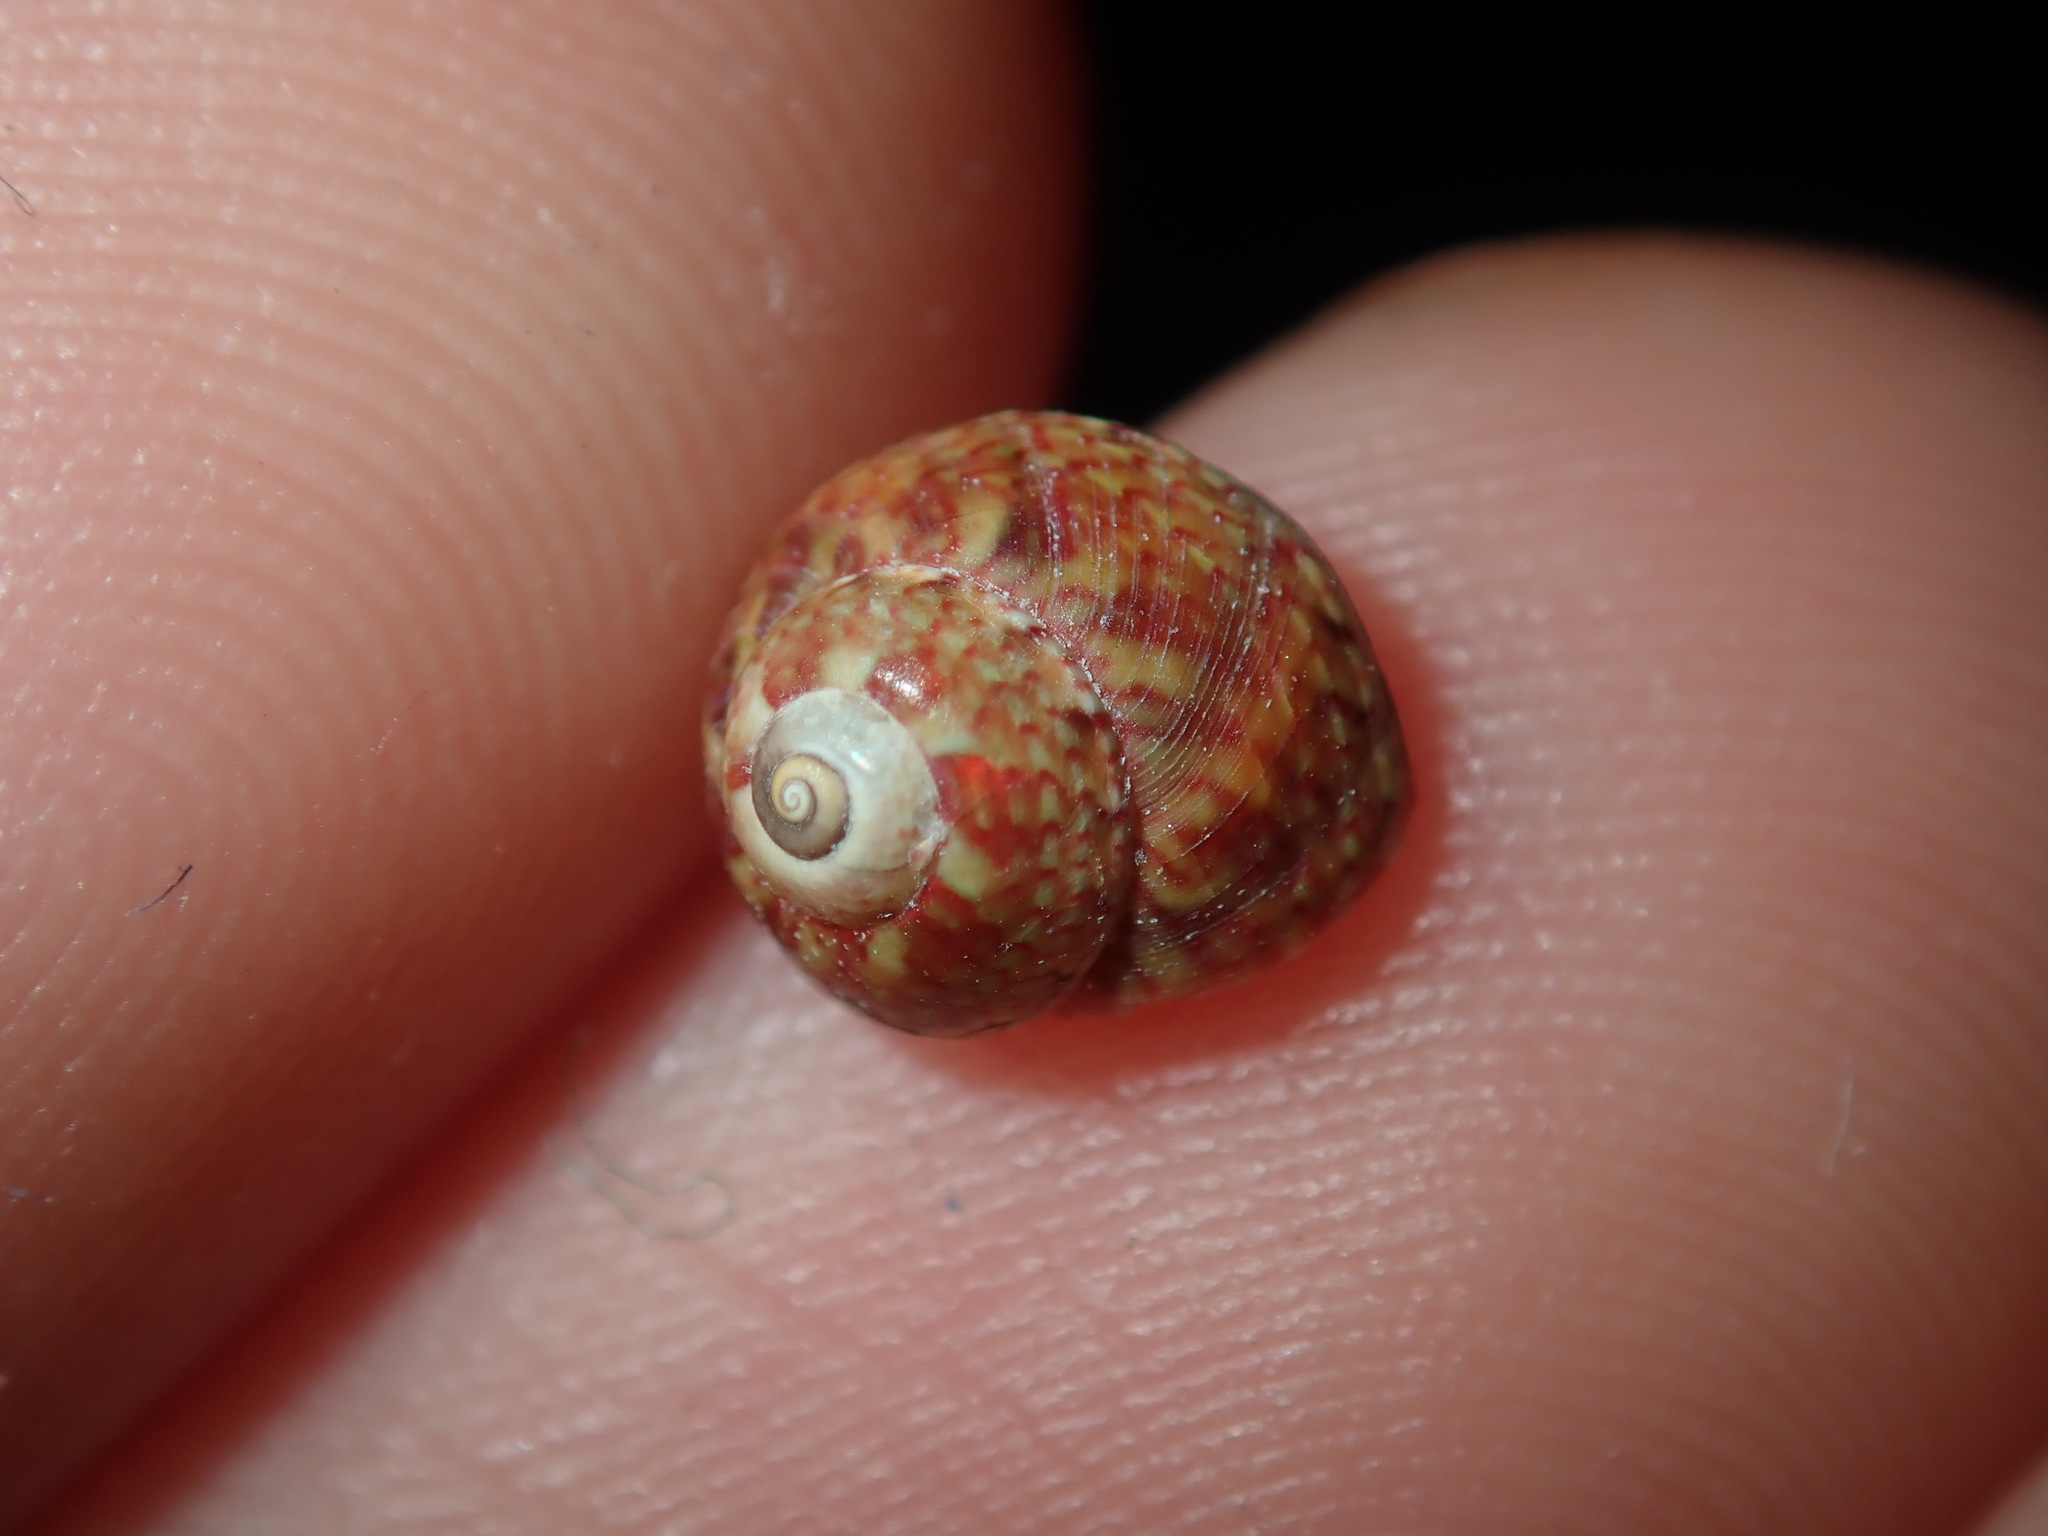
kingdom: Animalia
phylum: Mollusca
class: Gastropoda
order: Trochida
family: Trochidae
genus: Cantharidella
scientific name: Cantharidella picturata
